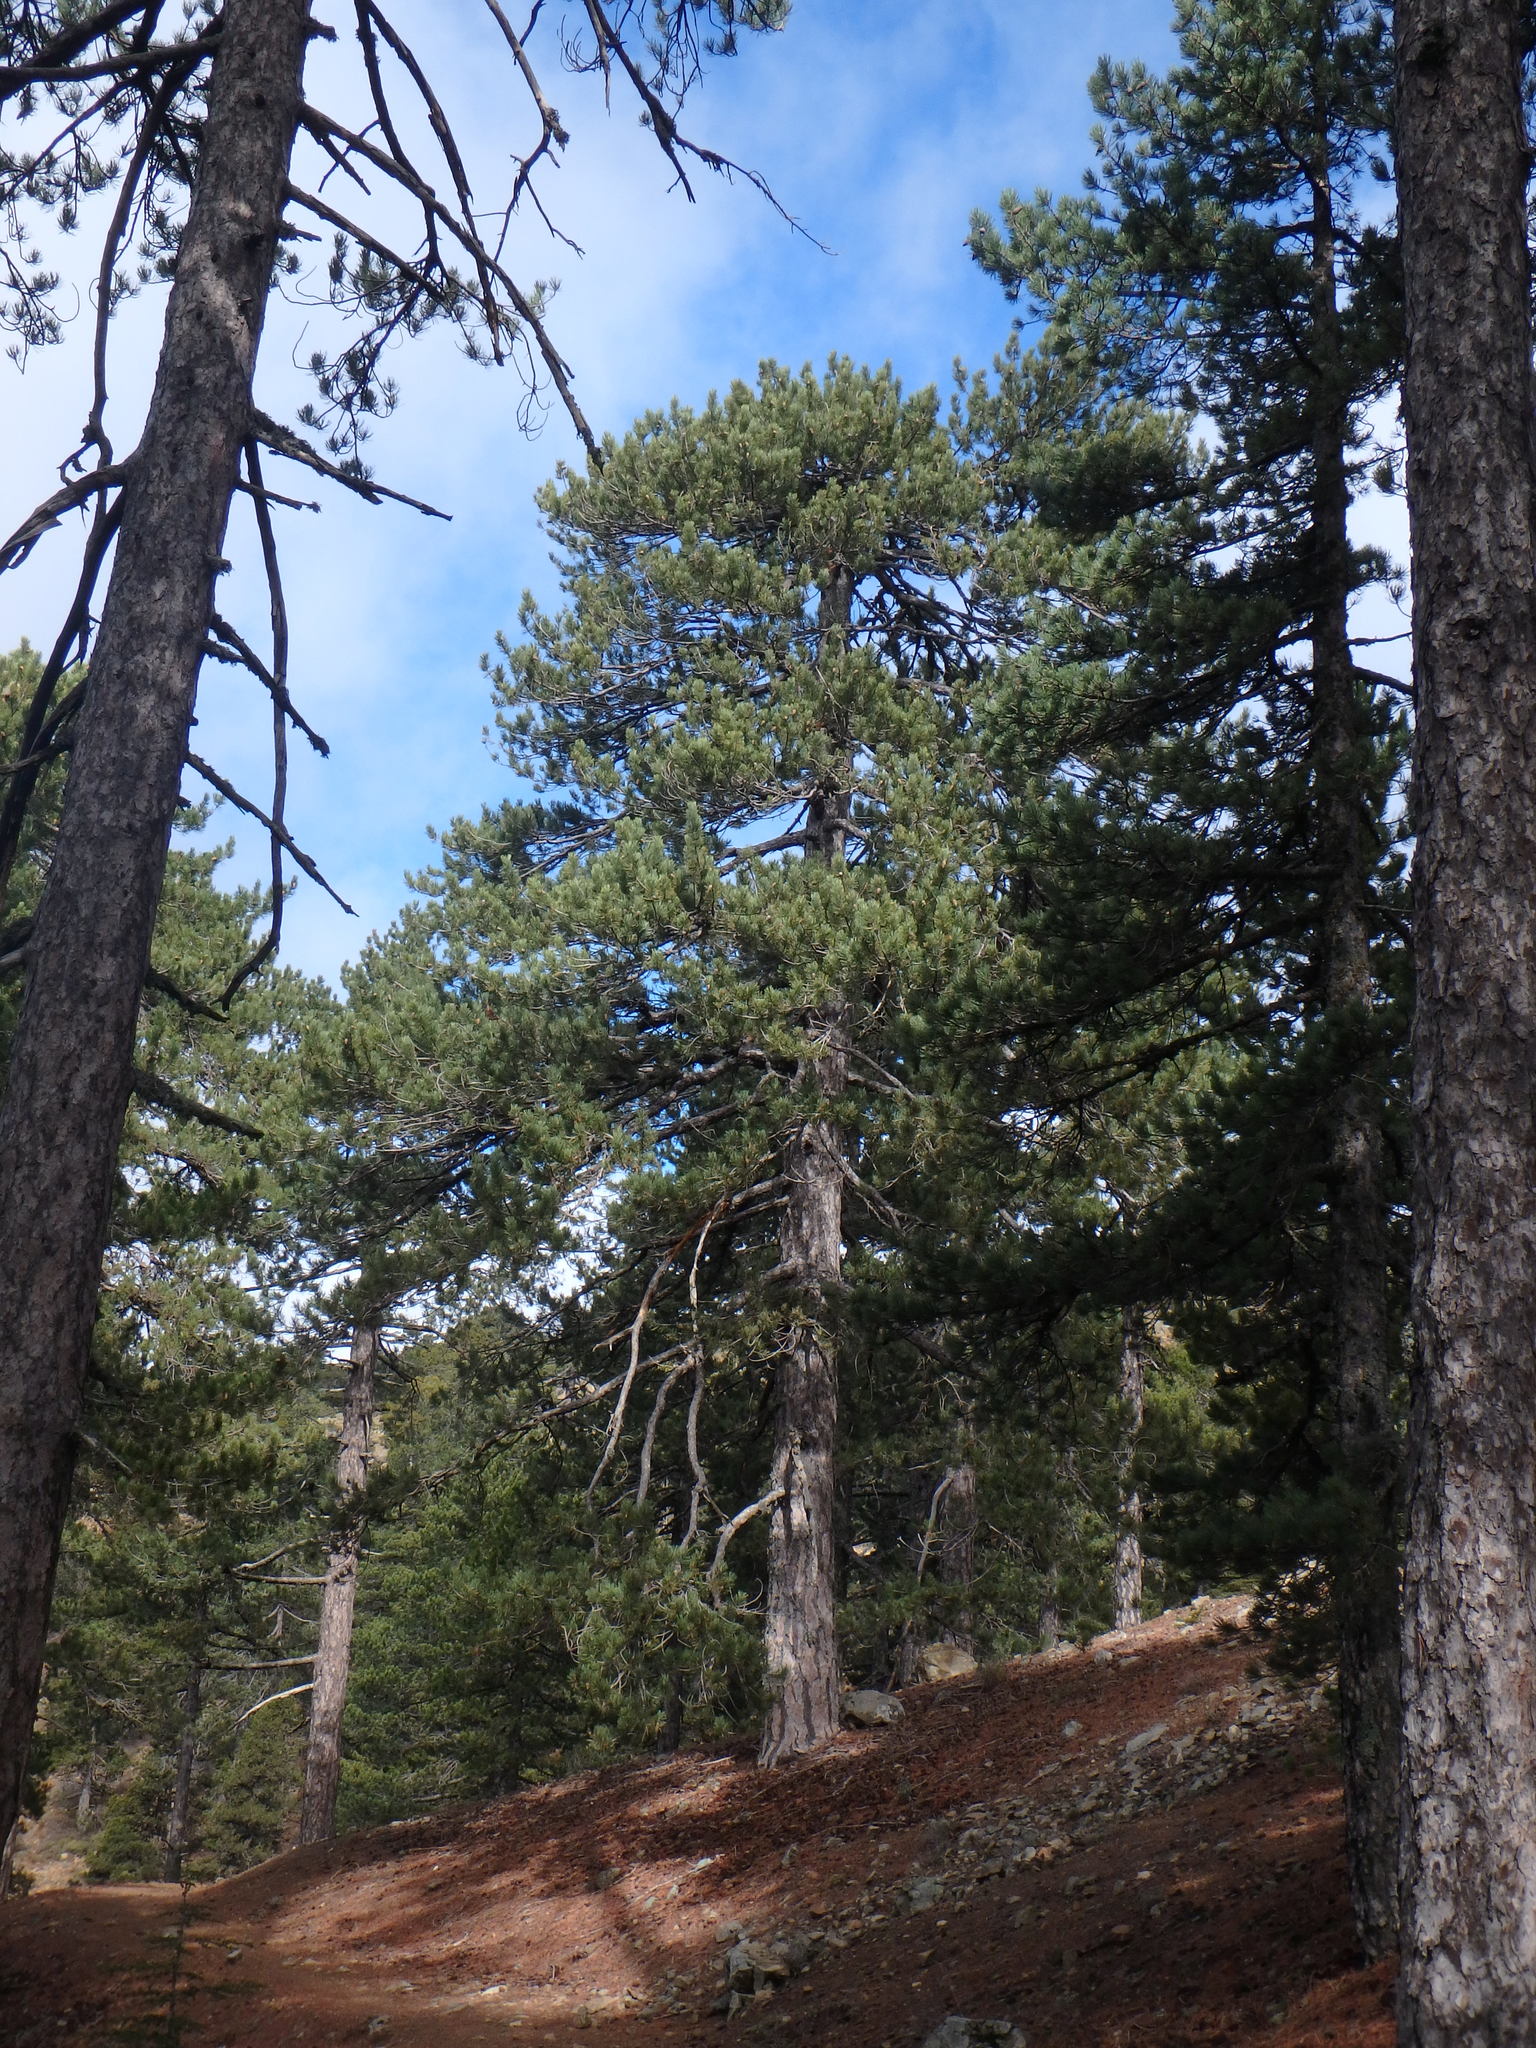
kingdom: Plantae
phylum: Tracheophyta
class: Pinopsida
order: Pinales
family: Pinaceae
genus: Pinus
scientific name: Pinus nigra
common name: Austrian pine
